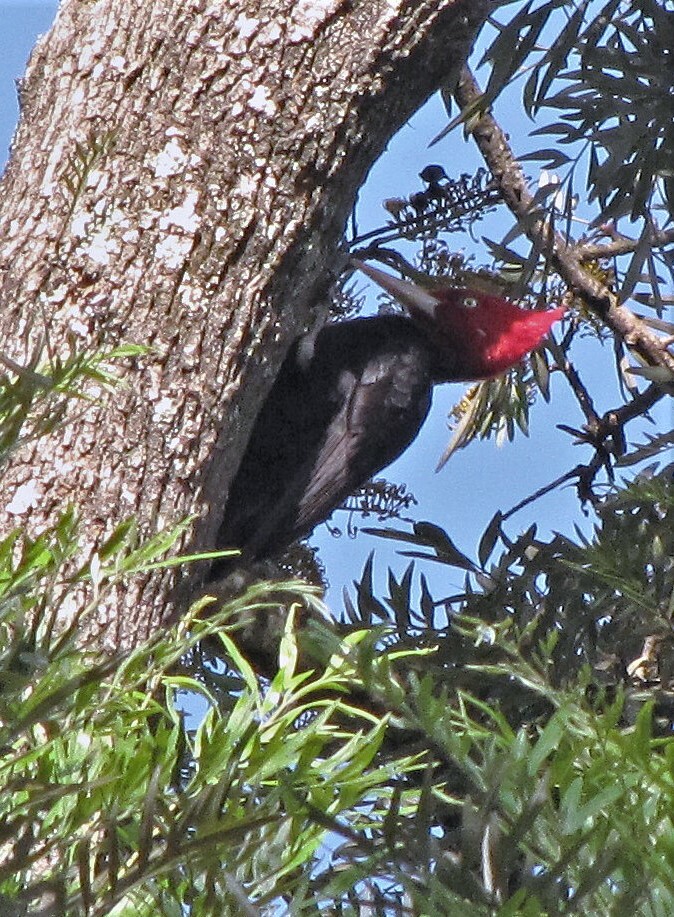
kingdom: Animalia
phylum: Chordata
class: Aves
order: Piciformes
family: Picidae
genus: Campephilus
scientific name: Campephilus leucopogon
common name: Cream-backed woodpecker
